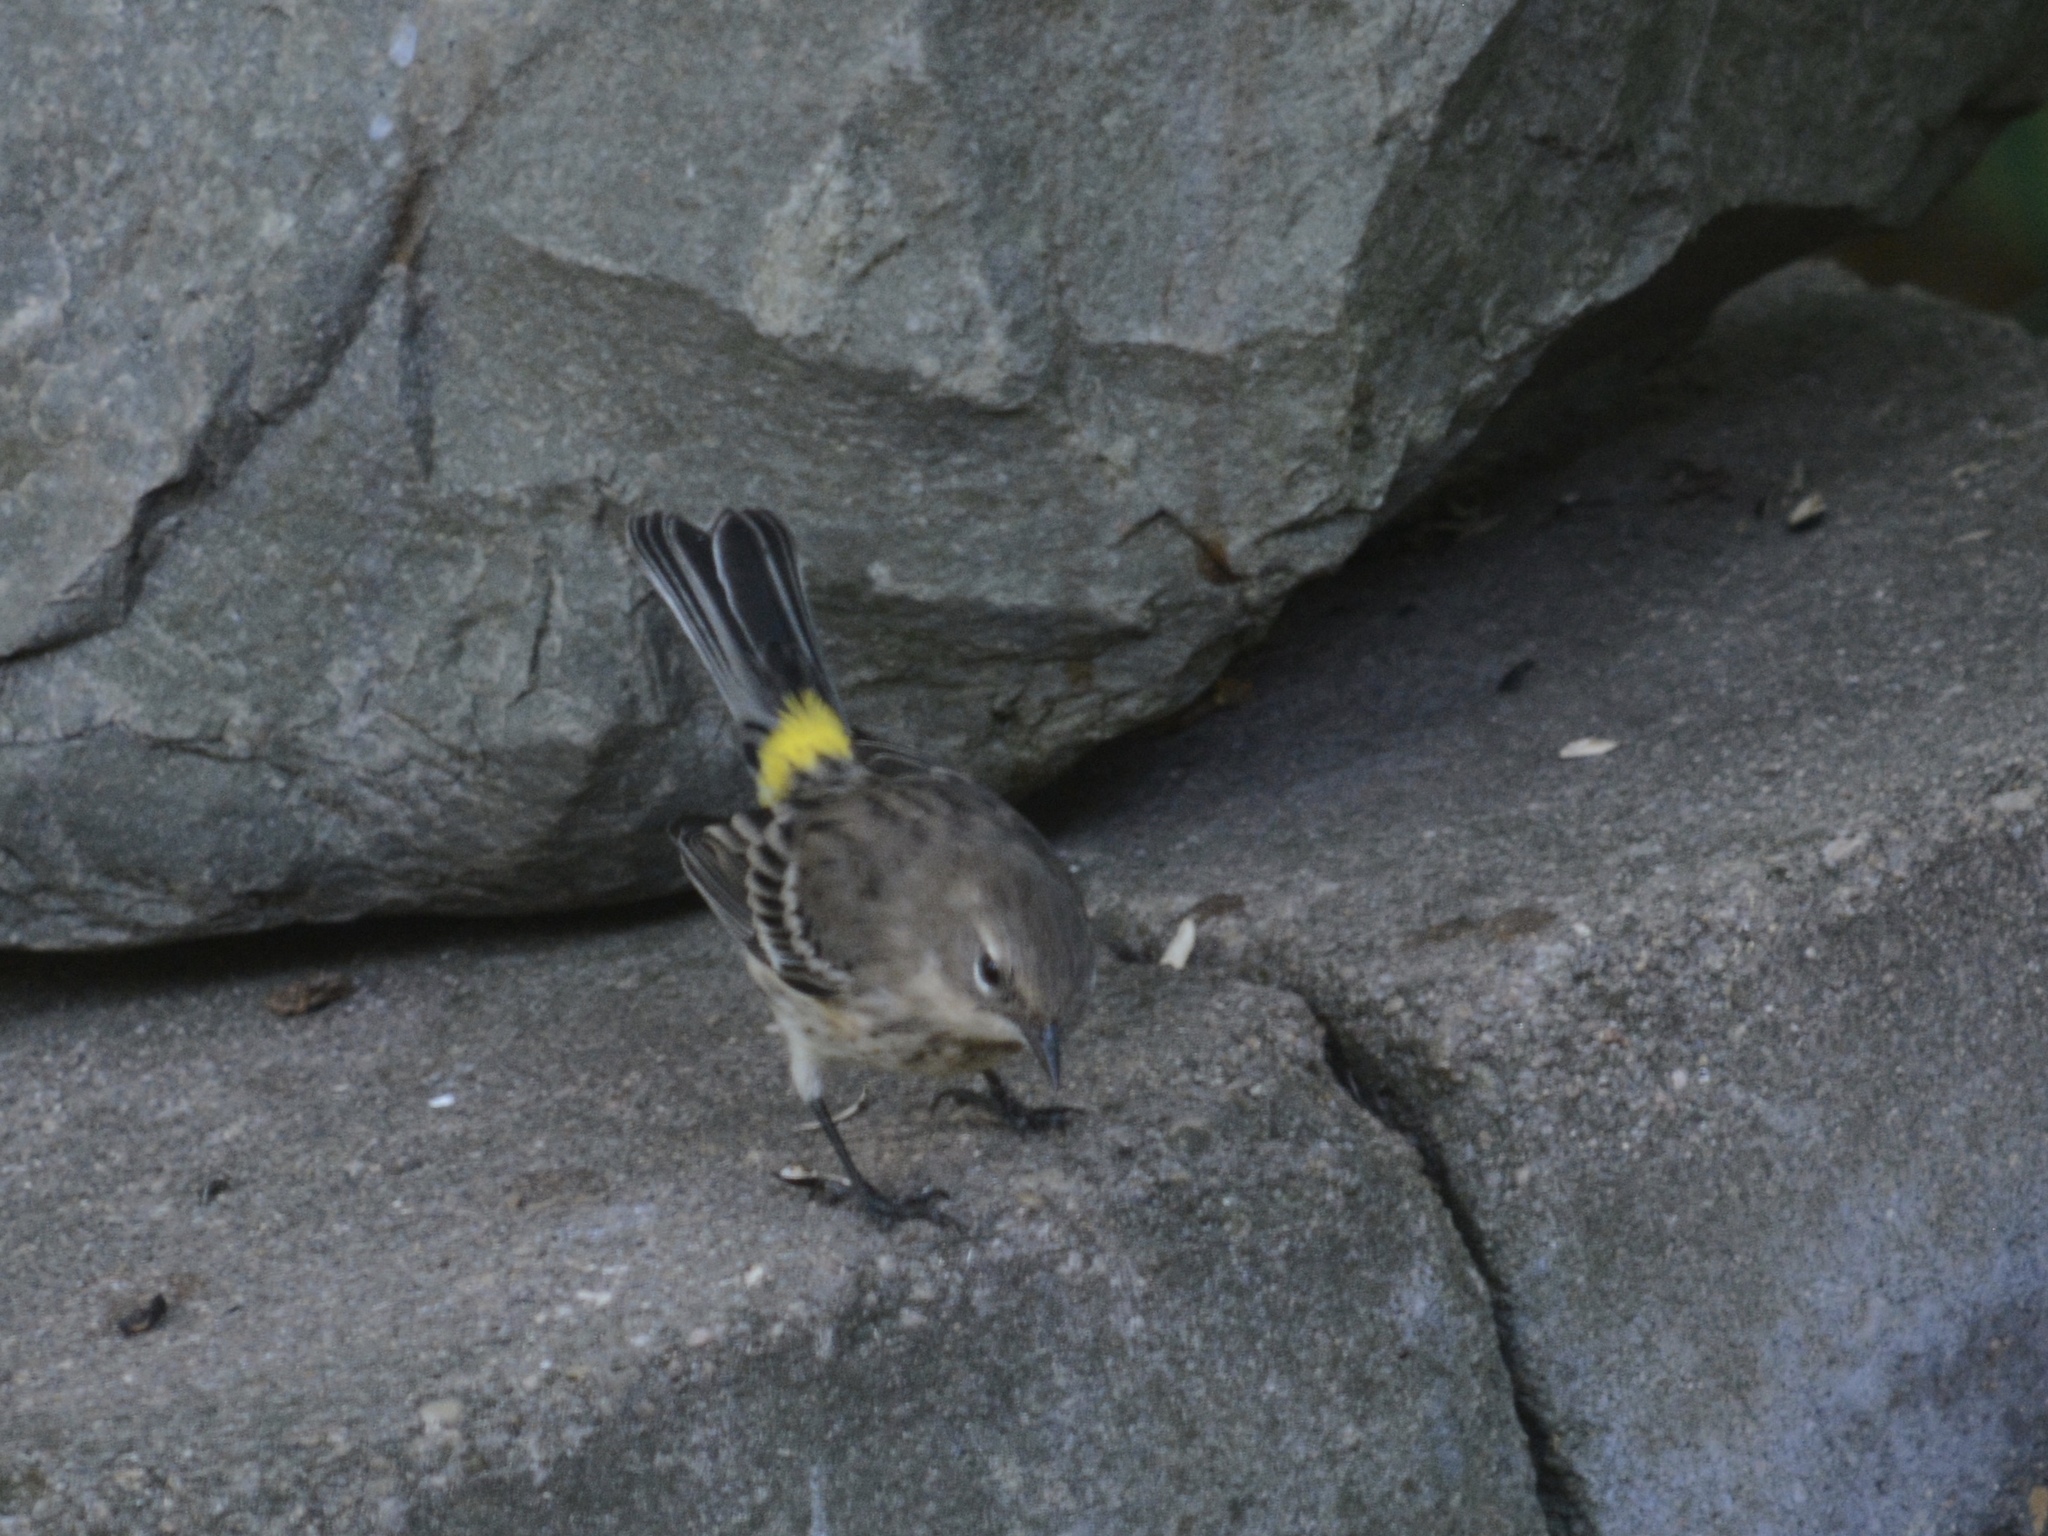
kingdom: Animalia
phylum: Chordata
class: Aves
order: Passeriformes
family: Parulidae
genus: Setophaga
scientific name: Setophaga coronata
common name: Myrtle warbler
